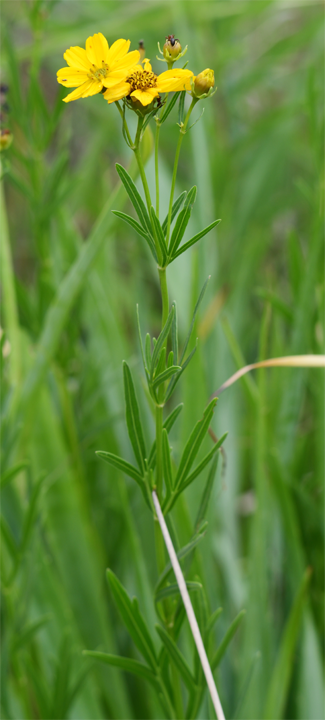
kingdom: Plantae
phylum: Tracheophyta
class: Magnoliopsida
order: Asterales
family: Asteraceae
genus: Coreopsis
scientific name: Coreopsis palmata
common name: Prairie coreopsis
